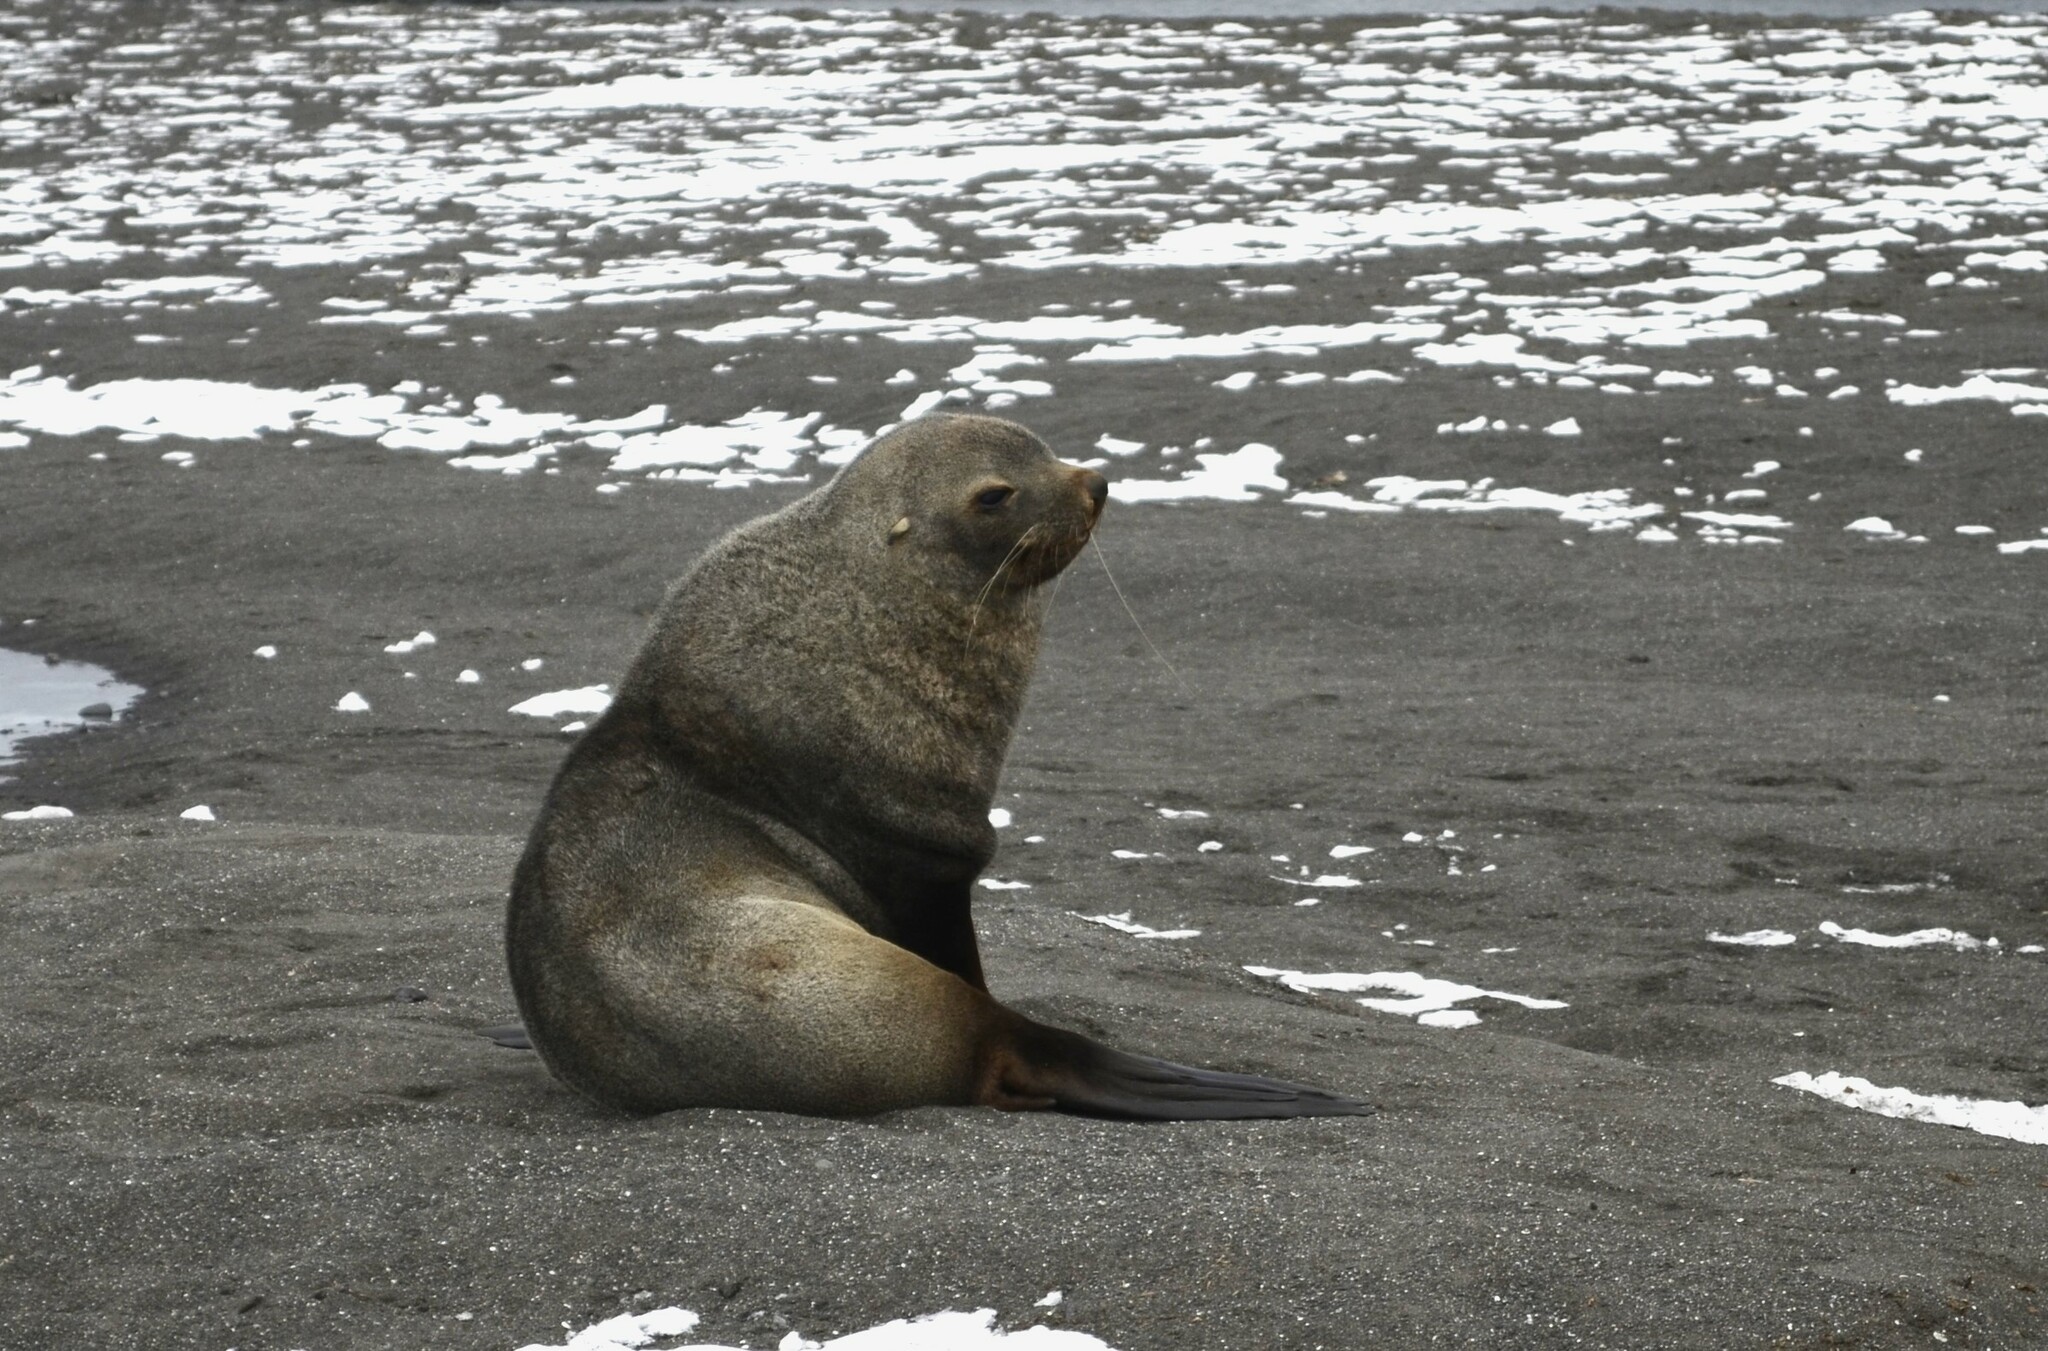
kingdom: Animalia
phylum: Chordata
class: Mammalia
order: Carnivora
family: Otariidae
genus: Arctocephalus
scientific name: Arctocephalus gazella
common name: Antarctic fur seal
